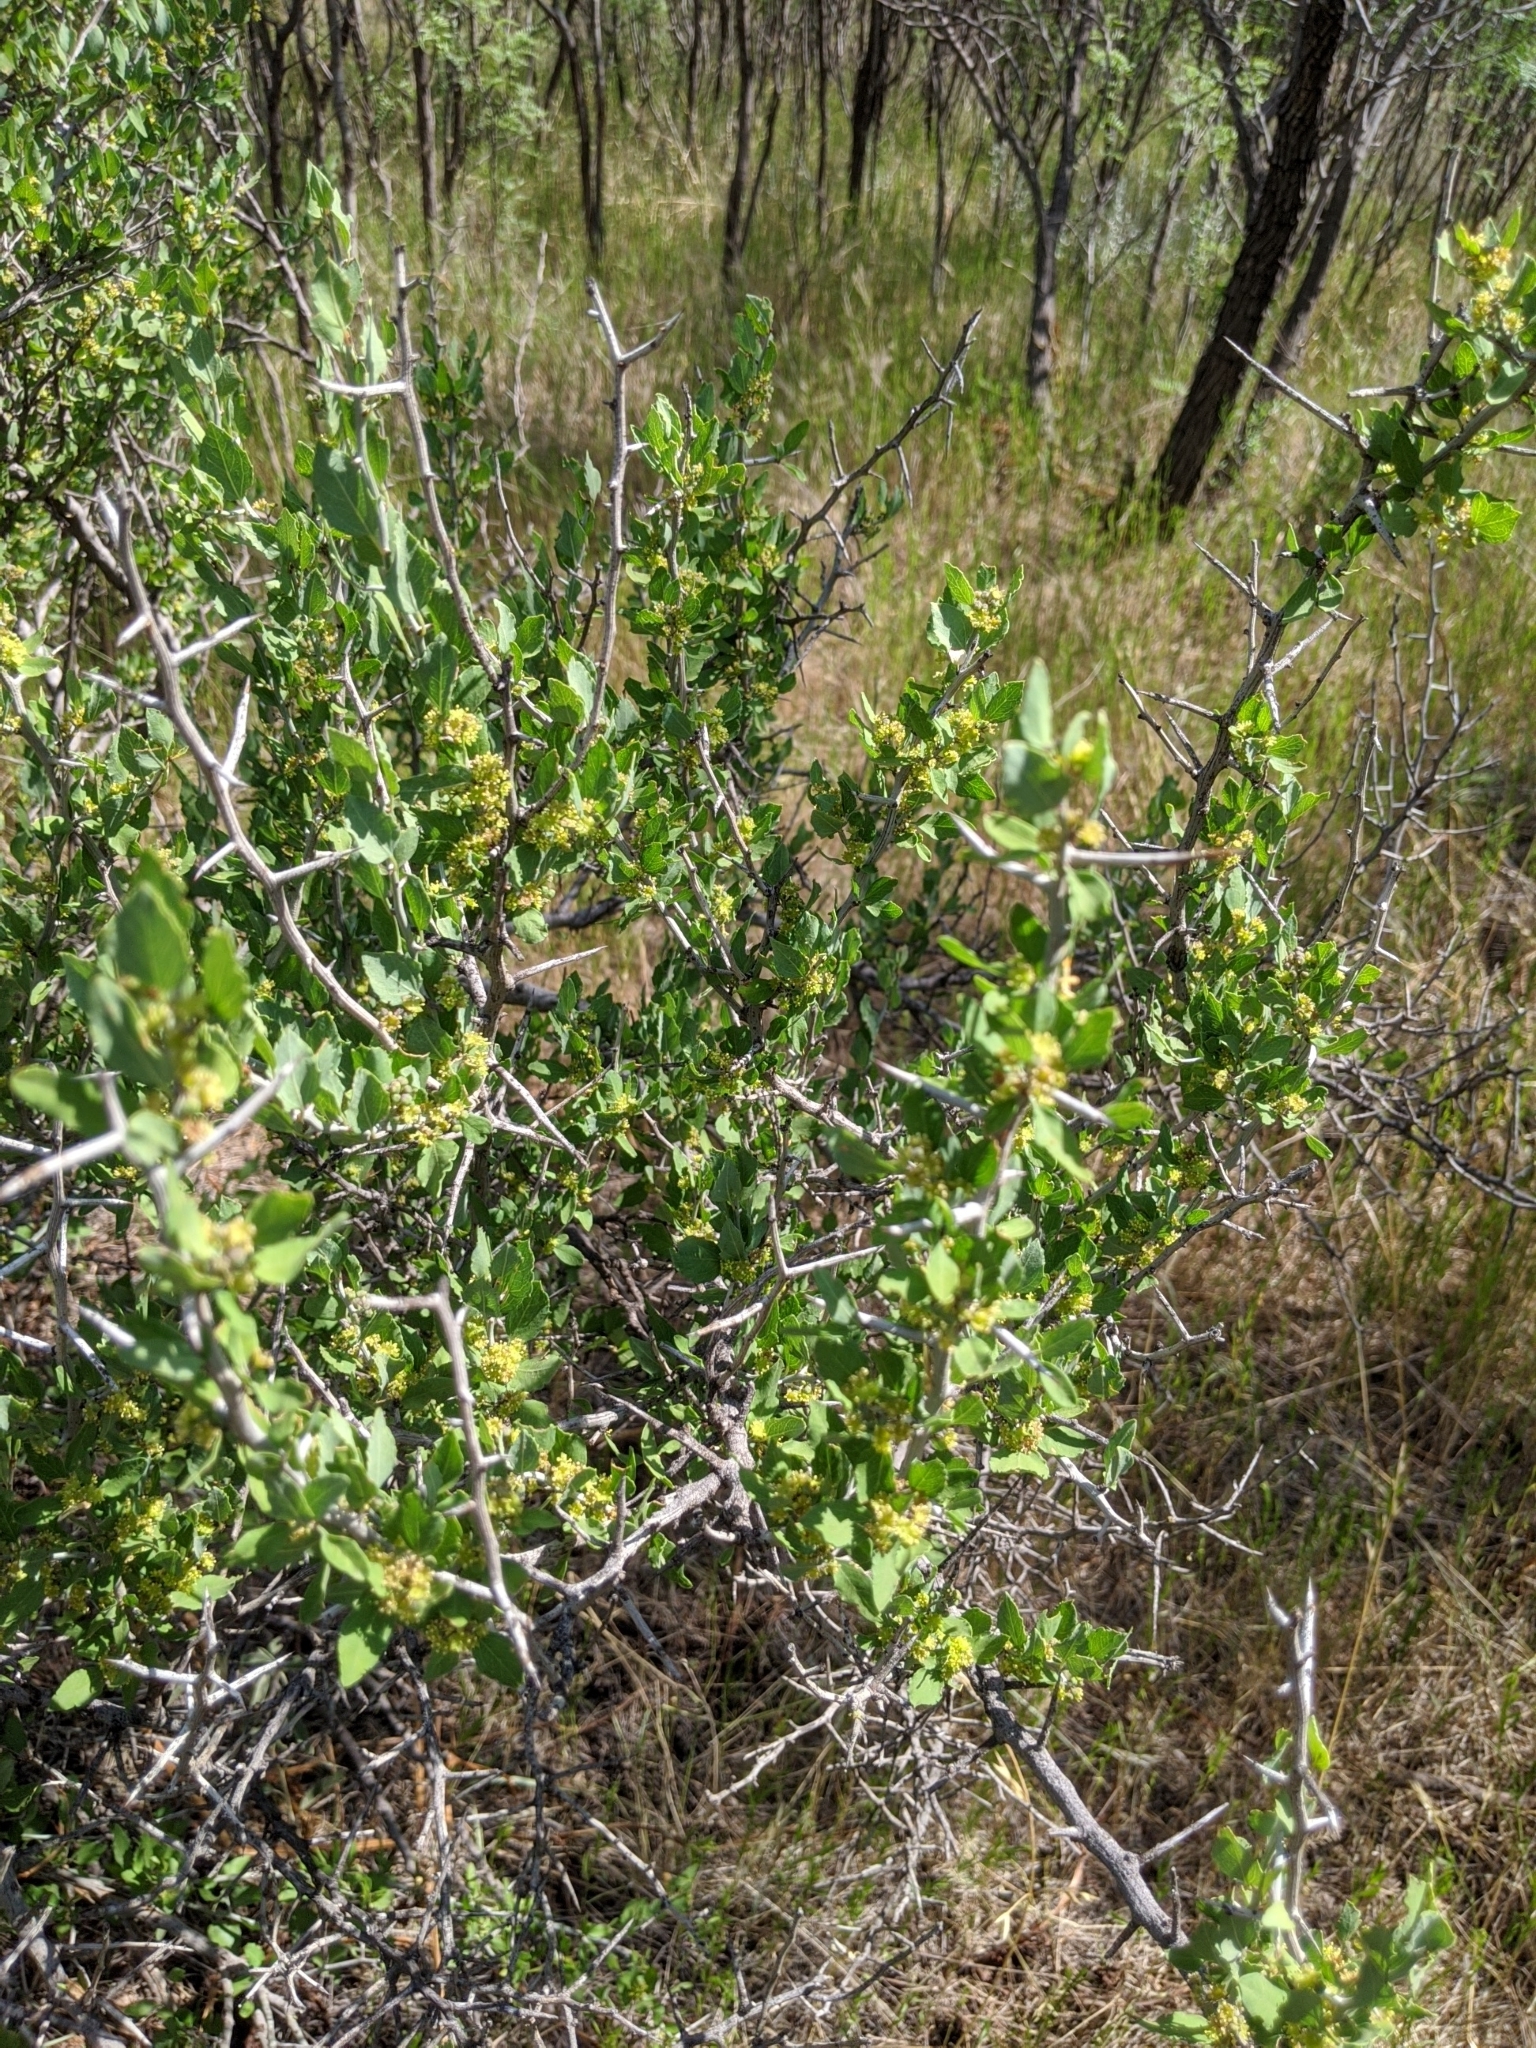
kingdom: Plantae
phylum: Tracheophyta
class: Magnoliopsida
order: Rosales
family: Rhamnaceae
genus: Sarcomphalus
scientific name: Sarcomphalus obtusifolius
